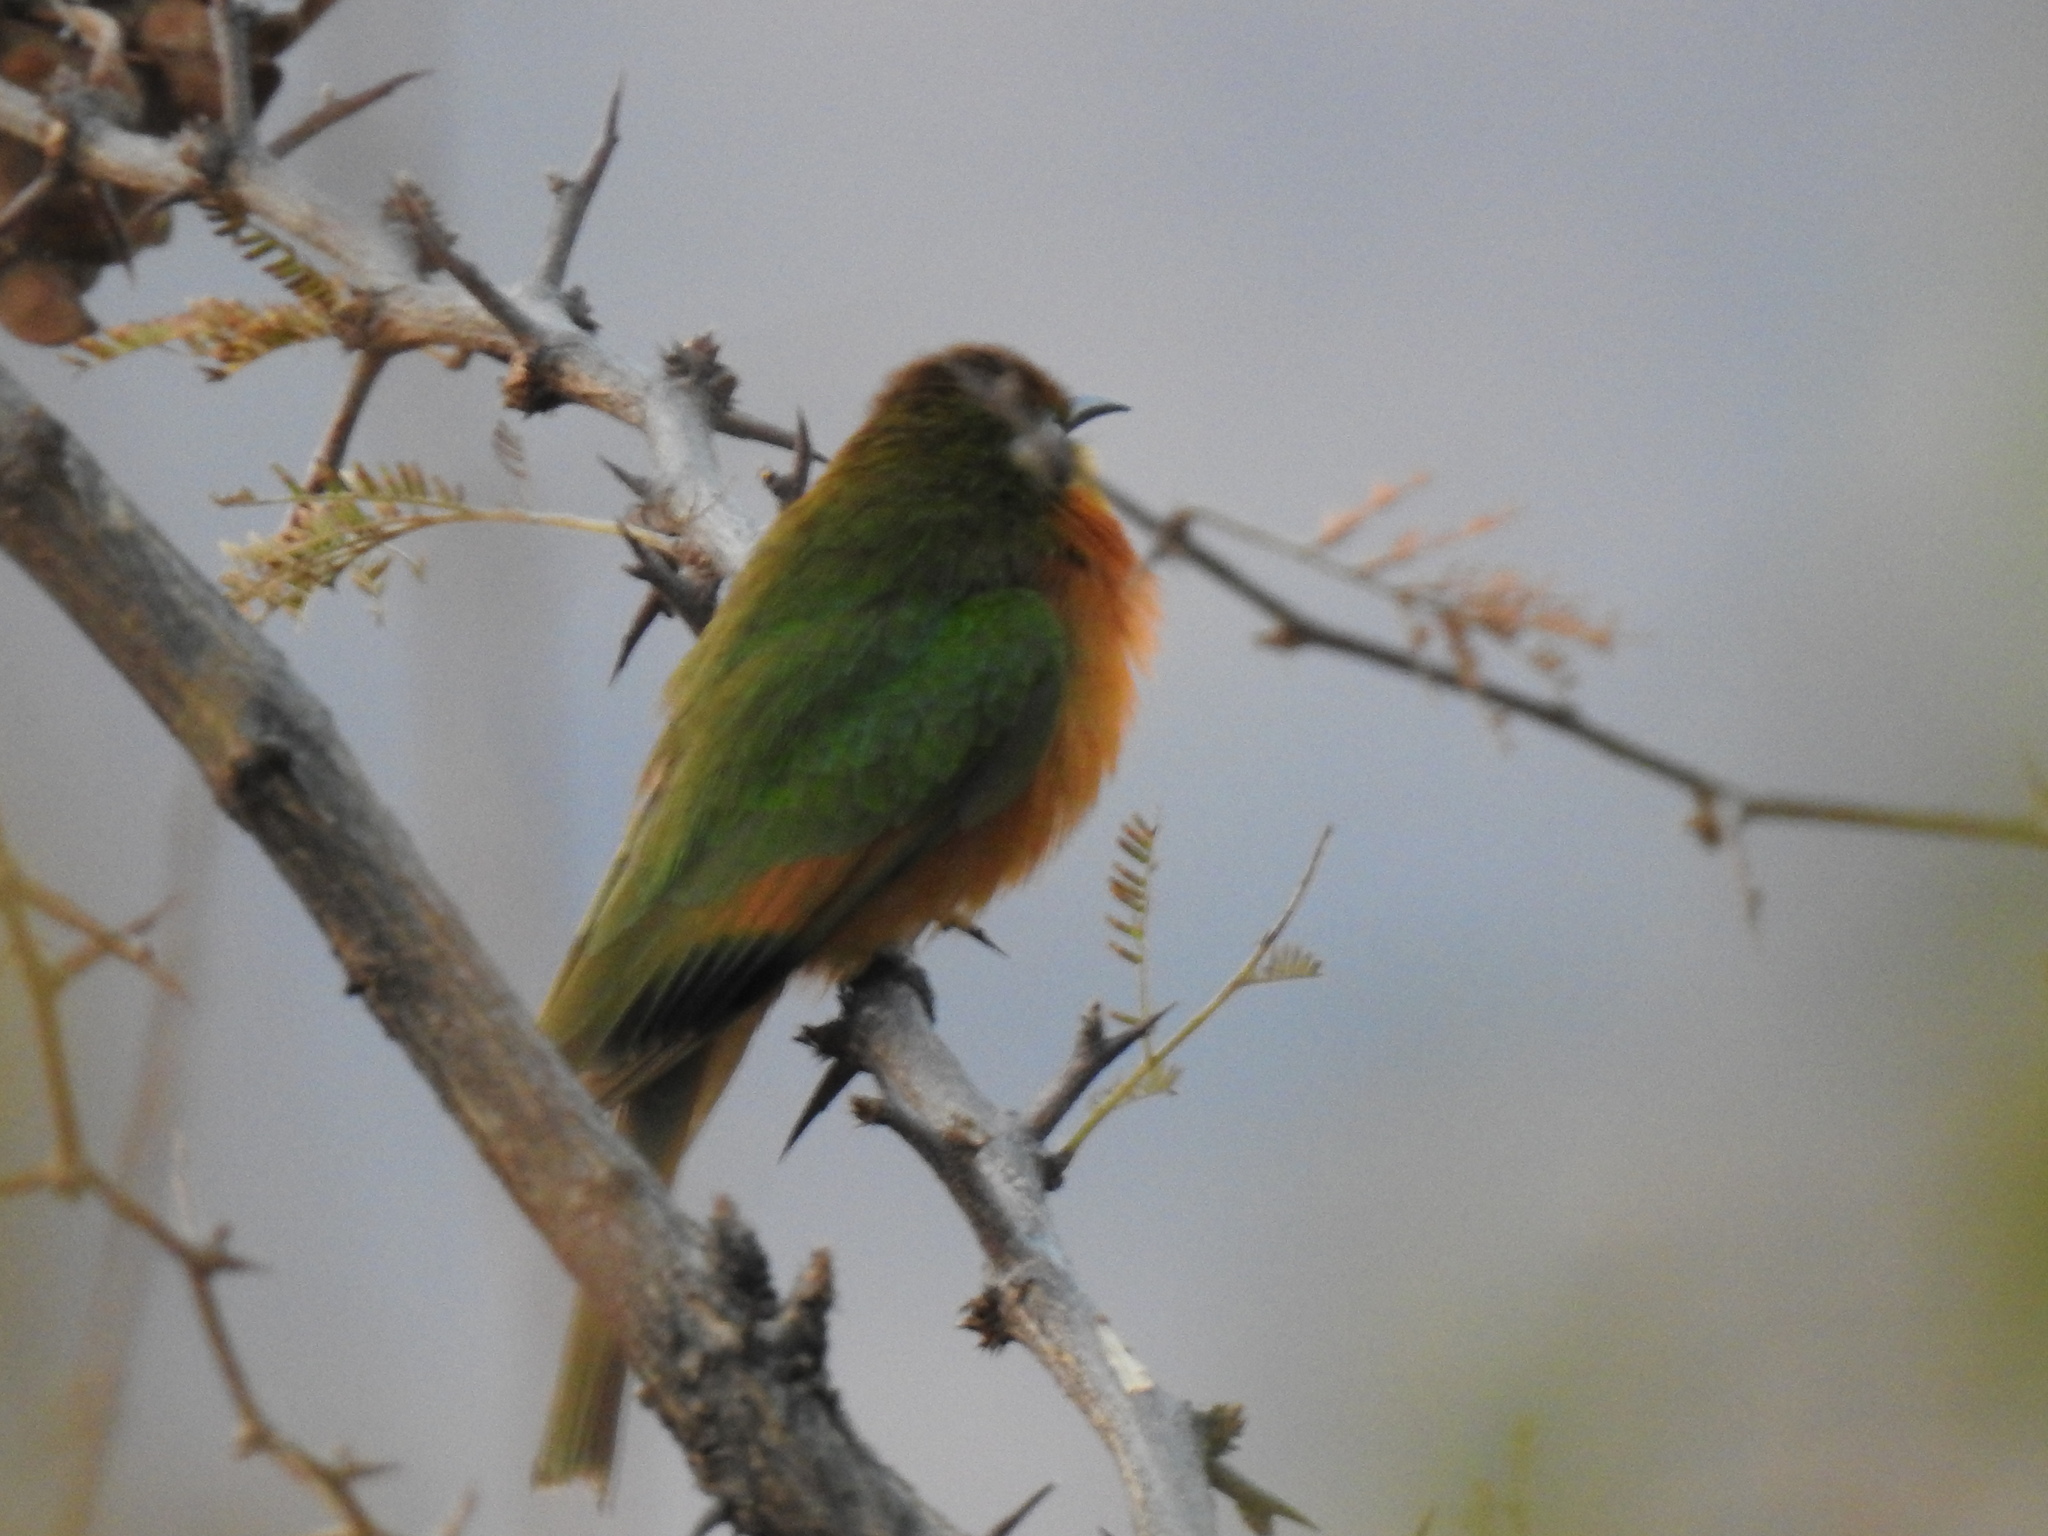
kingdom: Animalia
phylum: Chordata
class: Aves
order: Coraciiformes
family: Meropidae
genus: Merops
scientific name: Merops pusillus
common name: Little bee-eater
